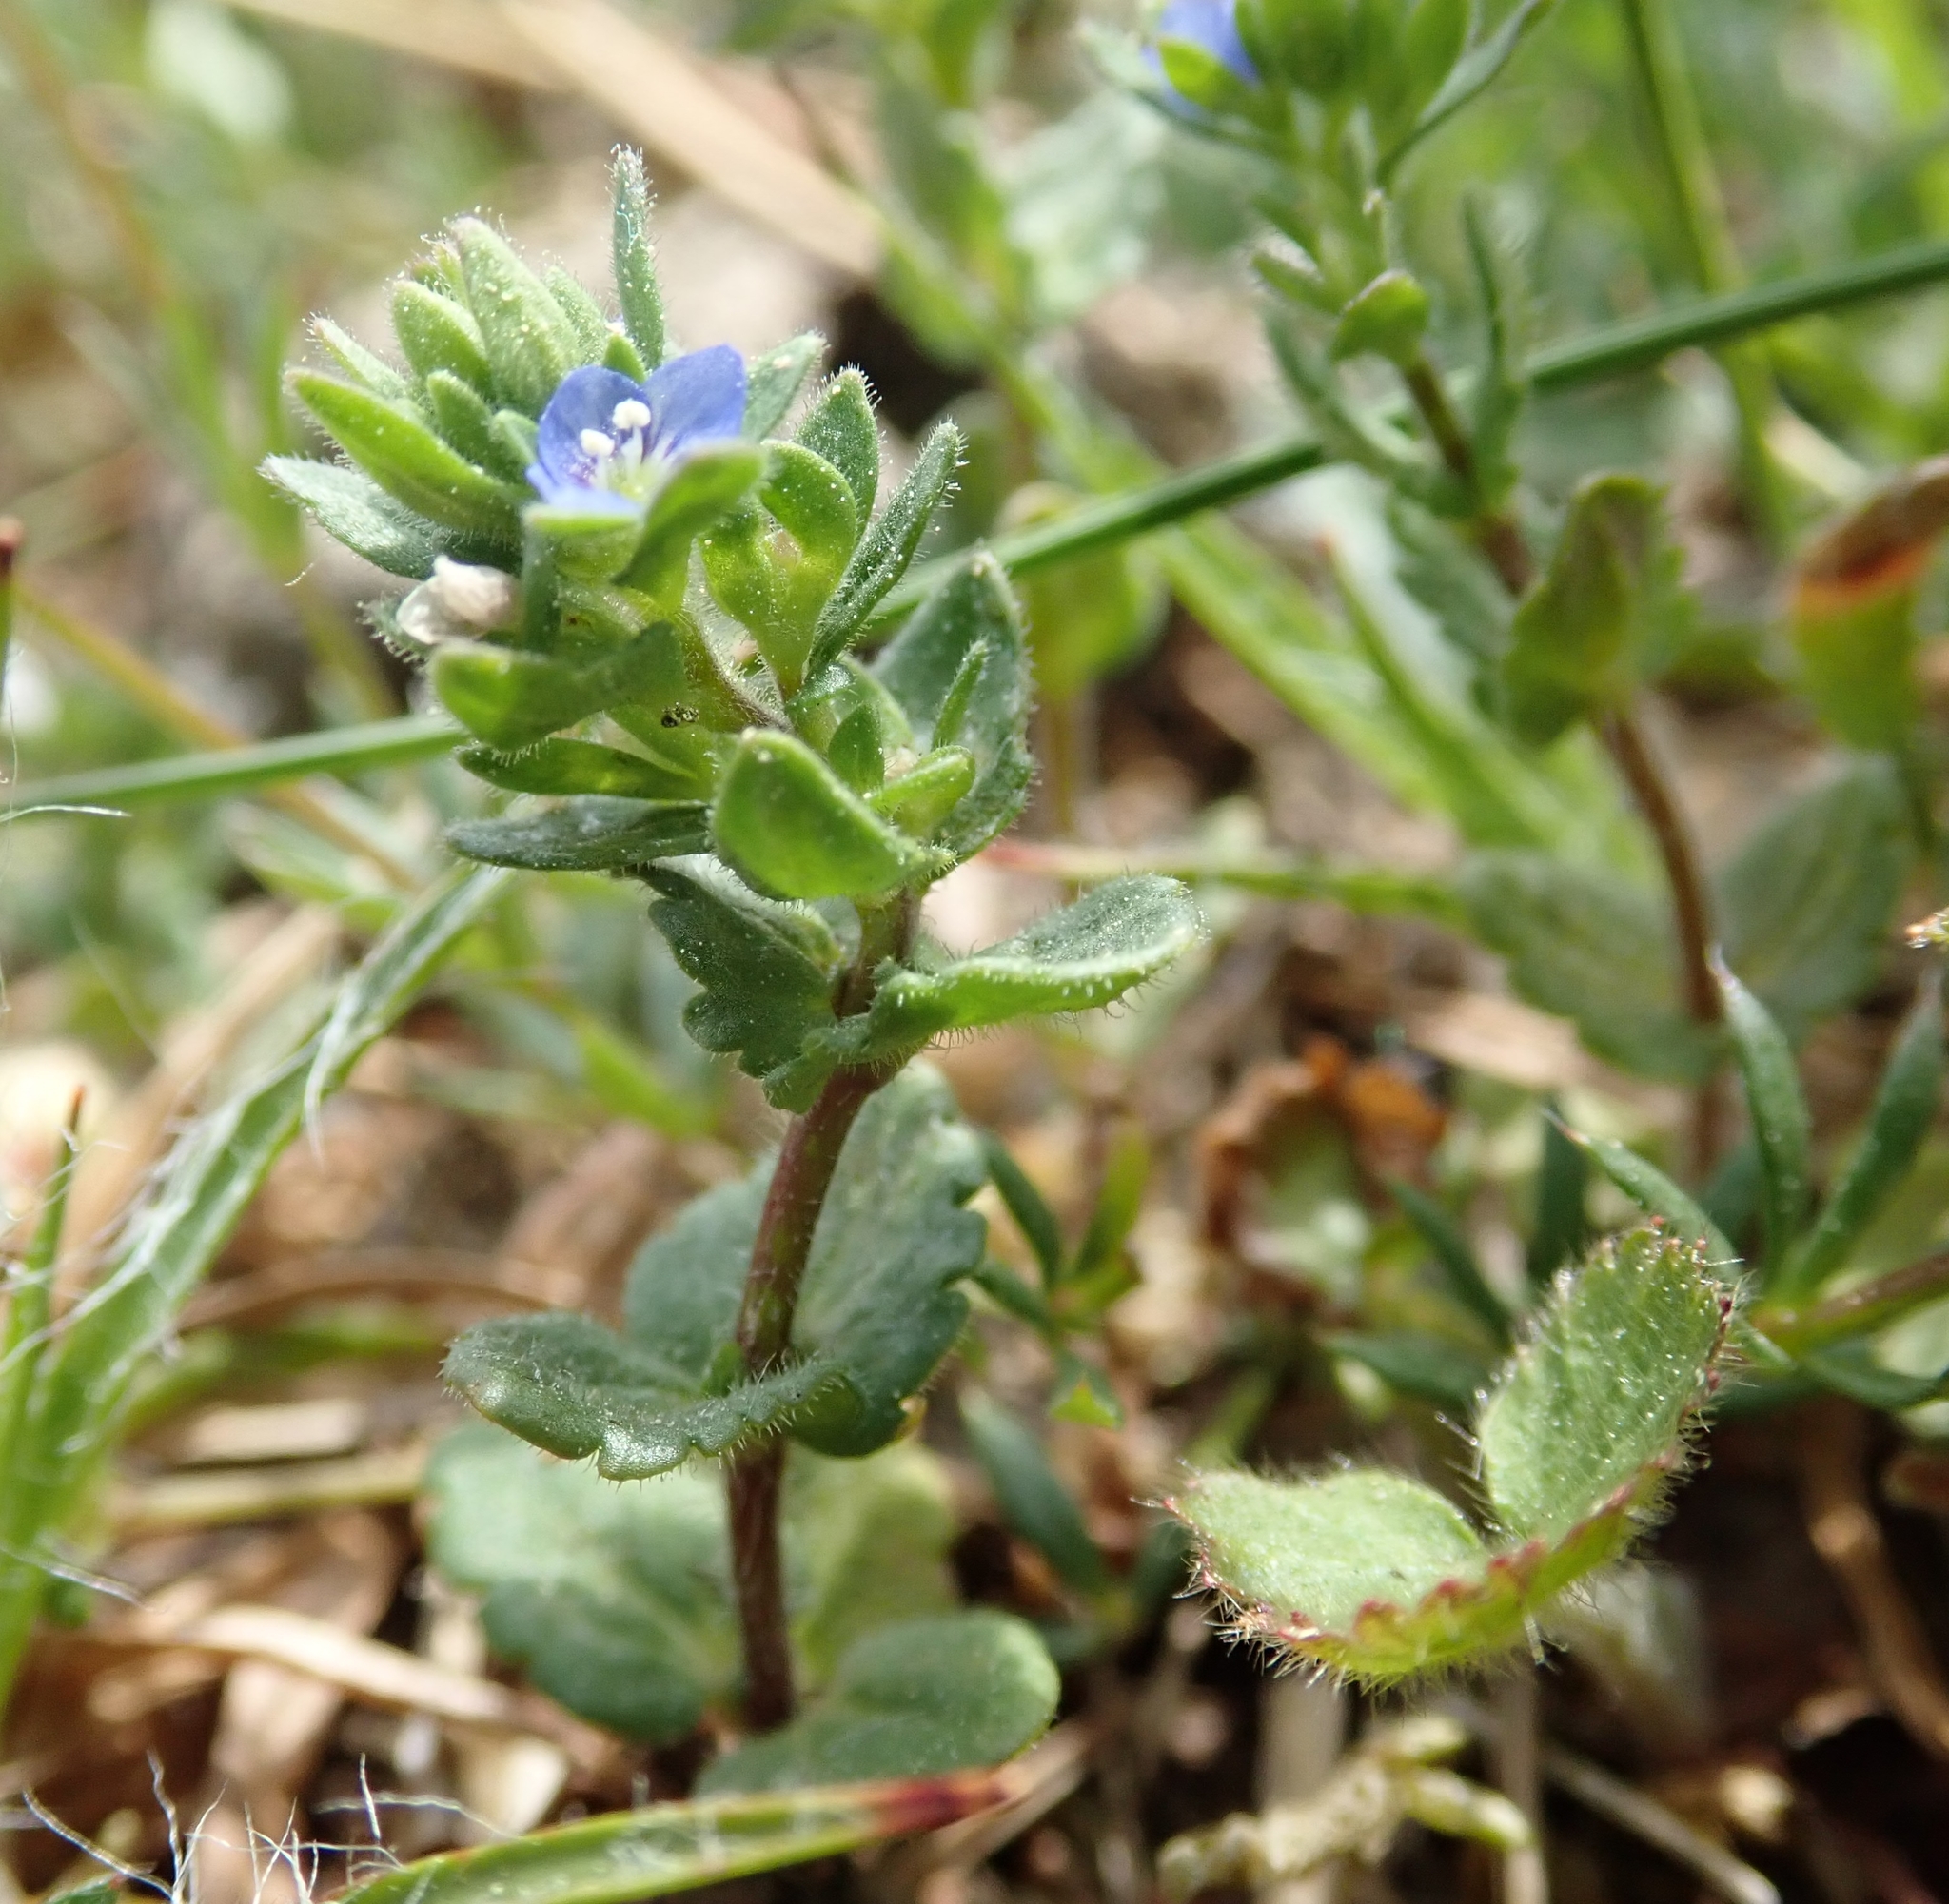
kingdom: Plantae
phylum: Tracheophyta
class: Magnoliopsida
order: Lamiales
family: Plantaginaceae
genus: Veronica
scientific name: Veronica arvensis
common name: Corn speedwell
